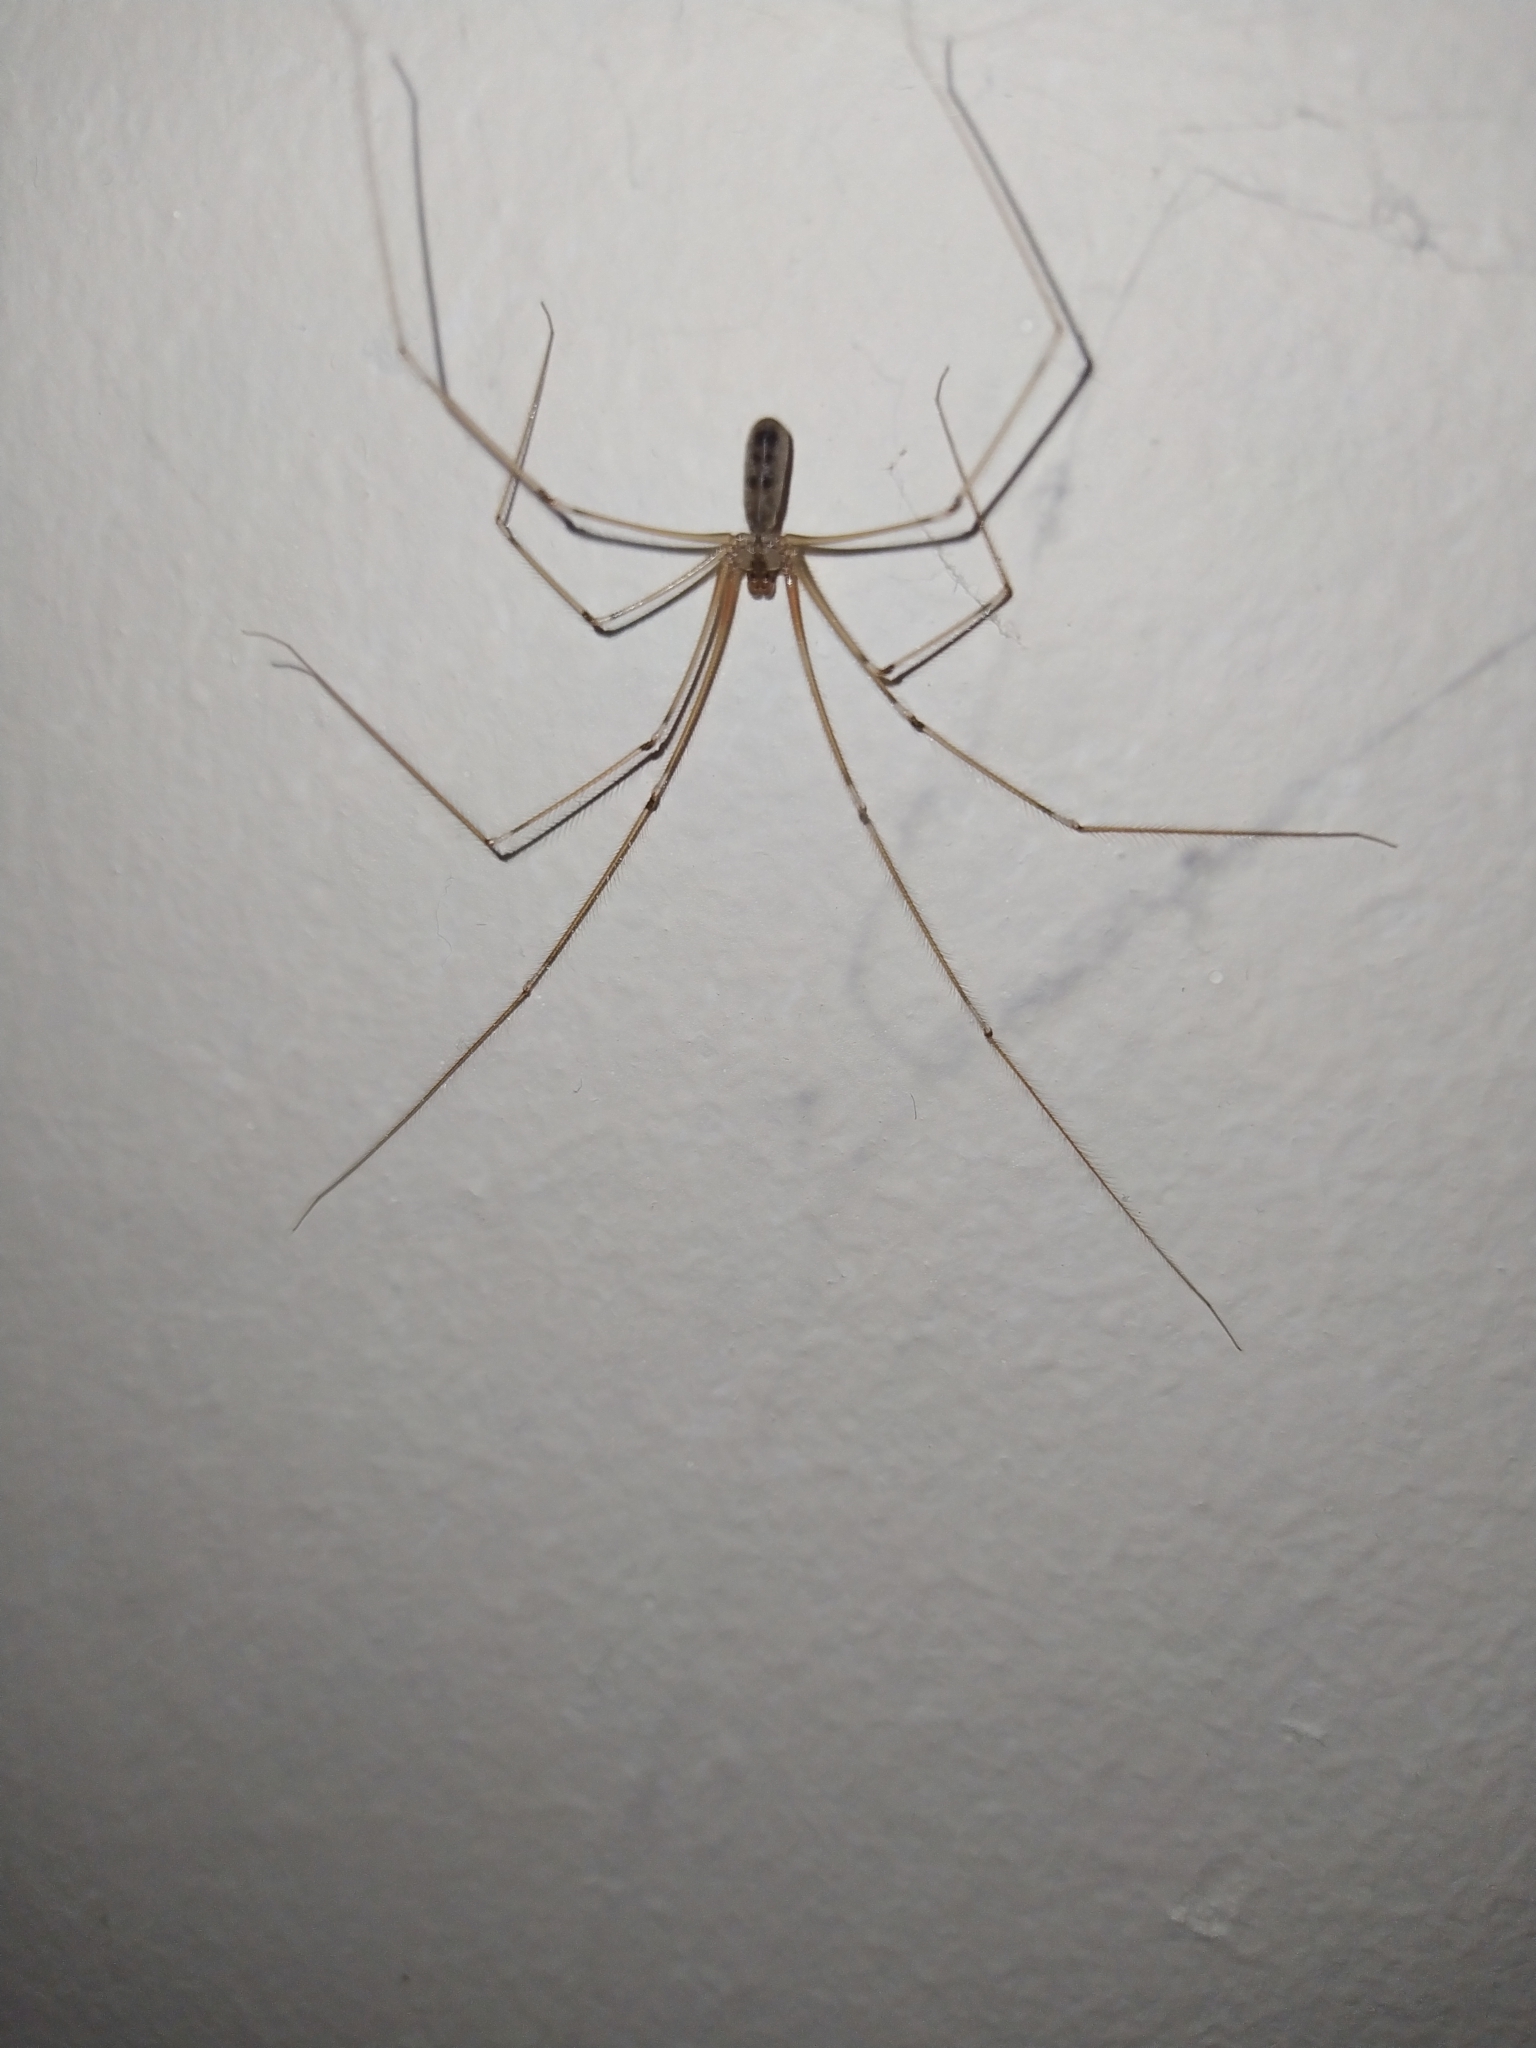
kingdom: Animalia
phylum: Arthropoda
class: Arachnida
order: Araneae
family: Pholcidae
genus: Pholcus
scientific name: Pholcus phalangioides
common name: Longbodied cellar spider
